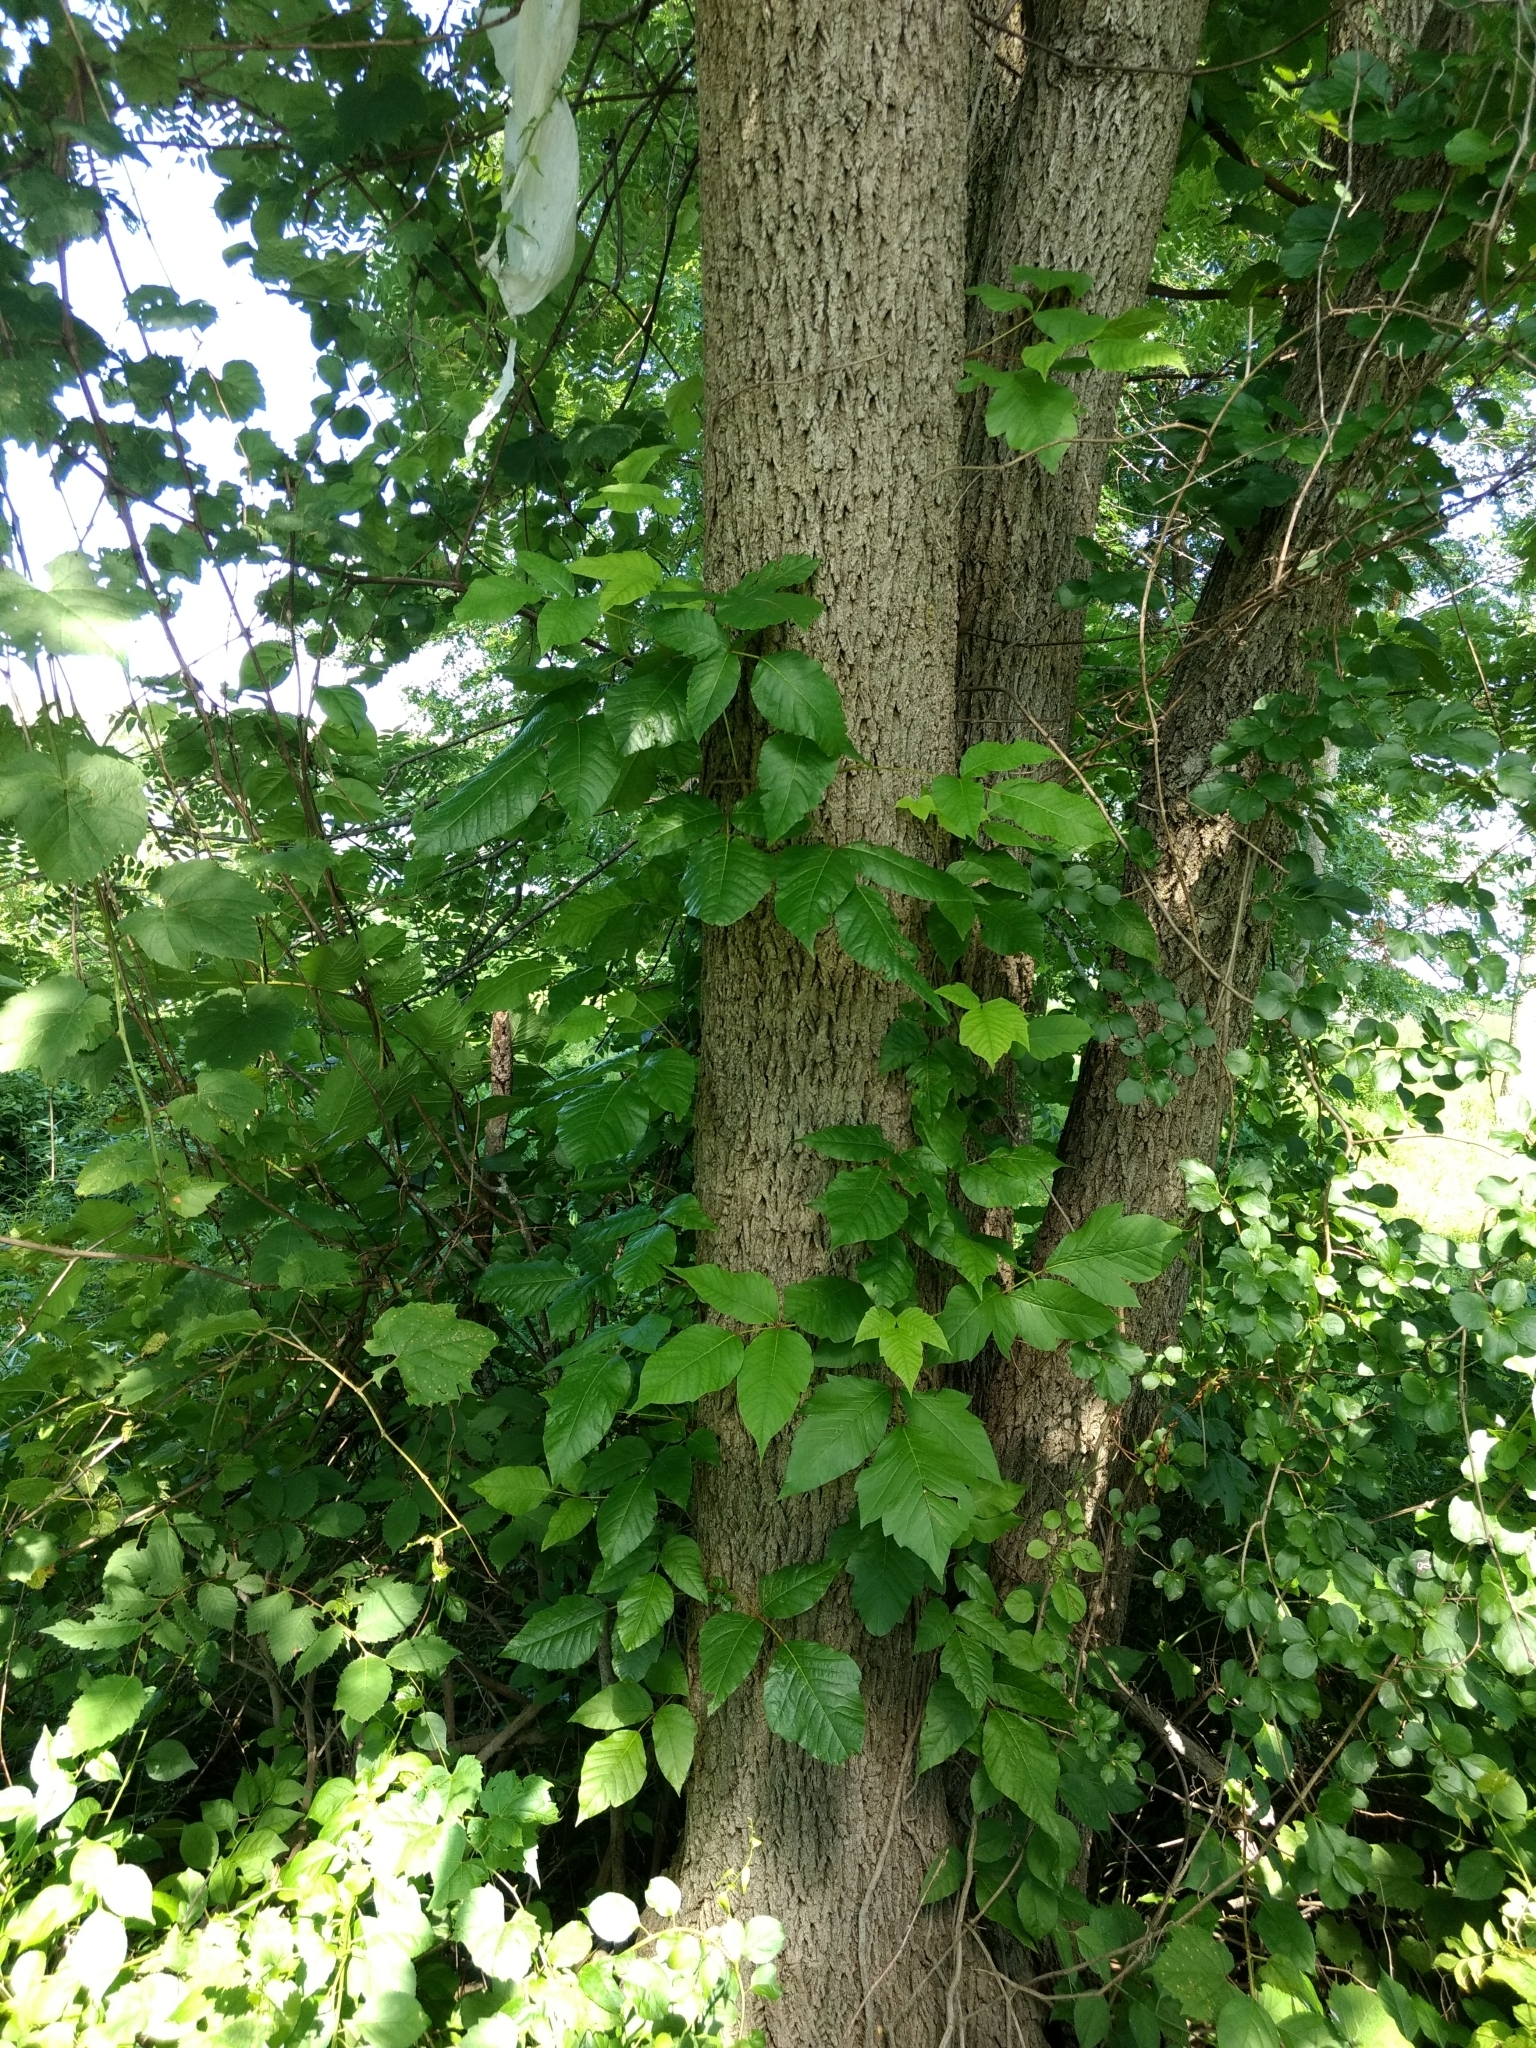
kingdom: Plantae
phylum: Tracheophyta
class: Magnoliopsida
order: Sapindales
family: Anacardiaceae
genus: Toxicodendron
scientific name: Toxicodendron radicans
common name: Poison ivy
